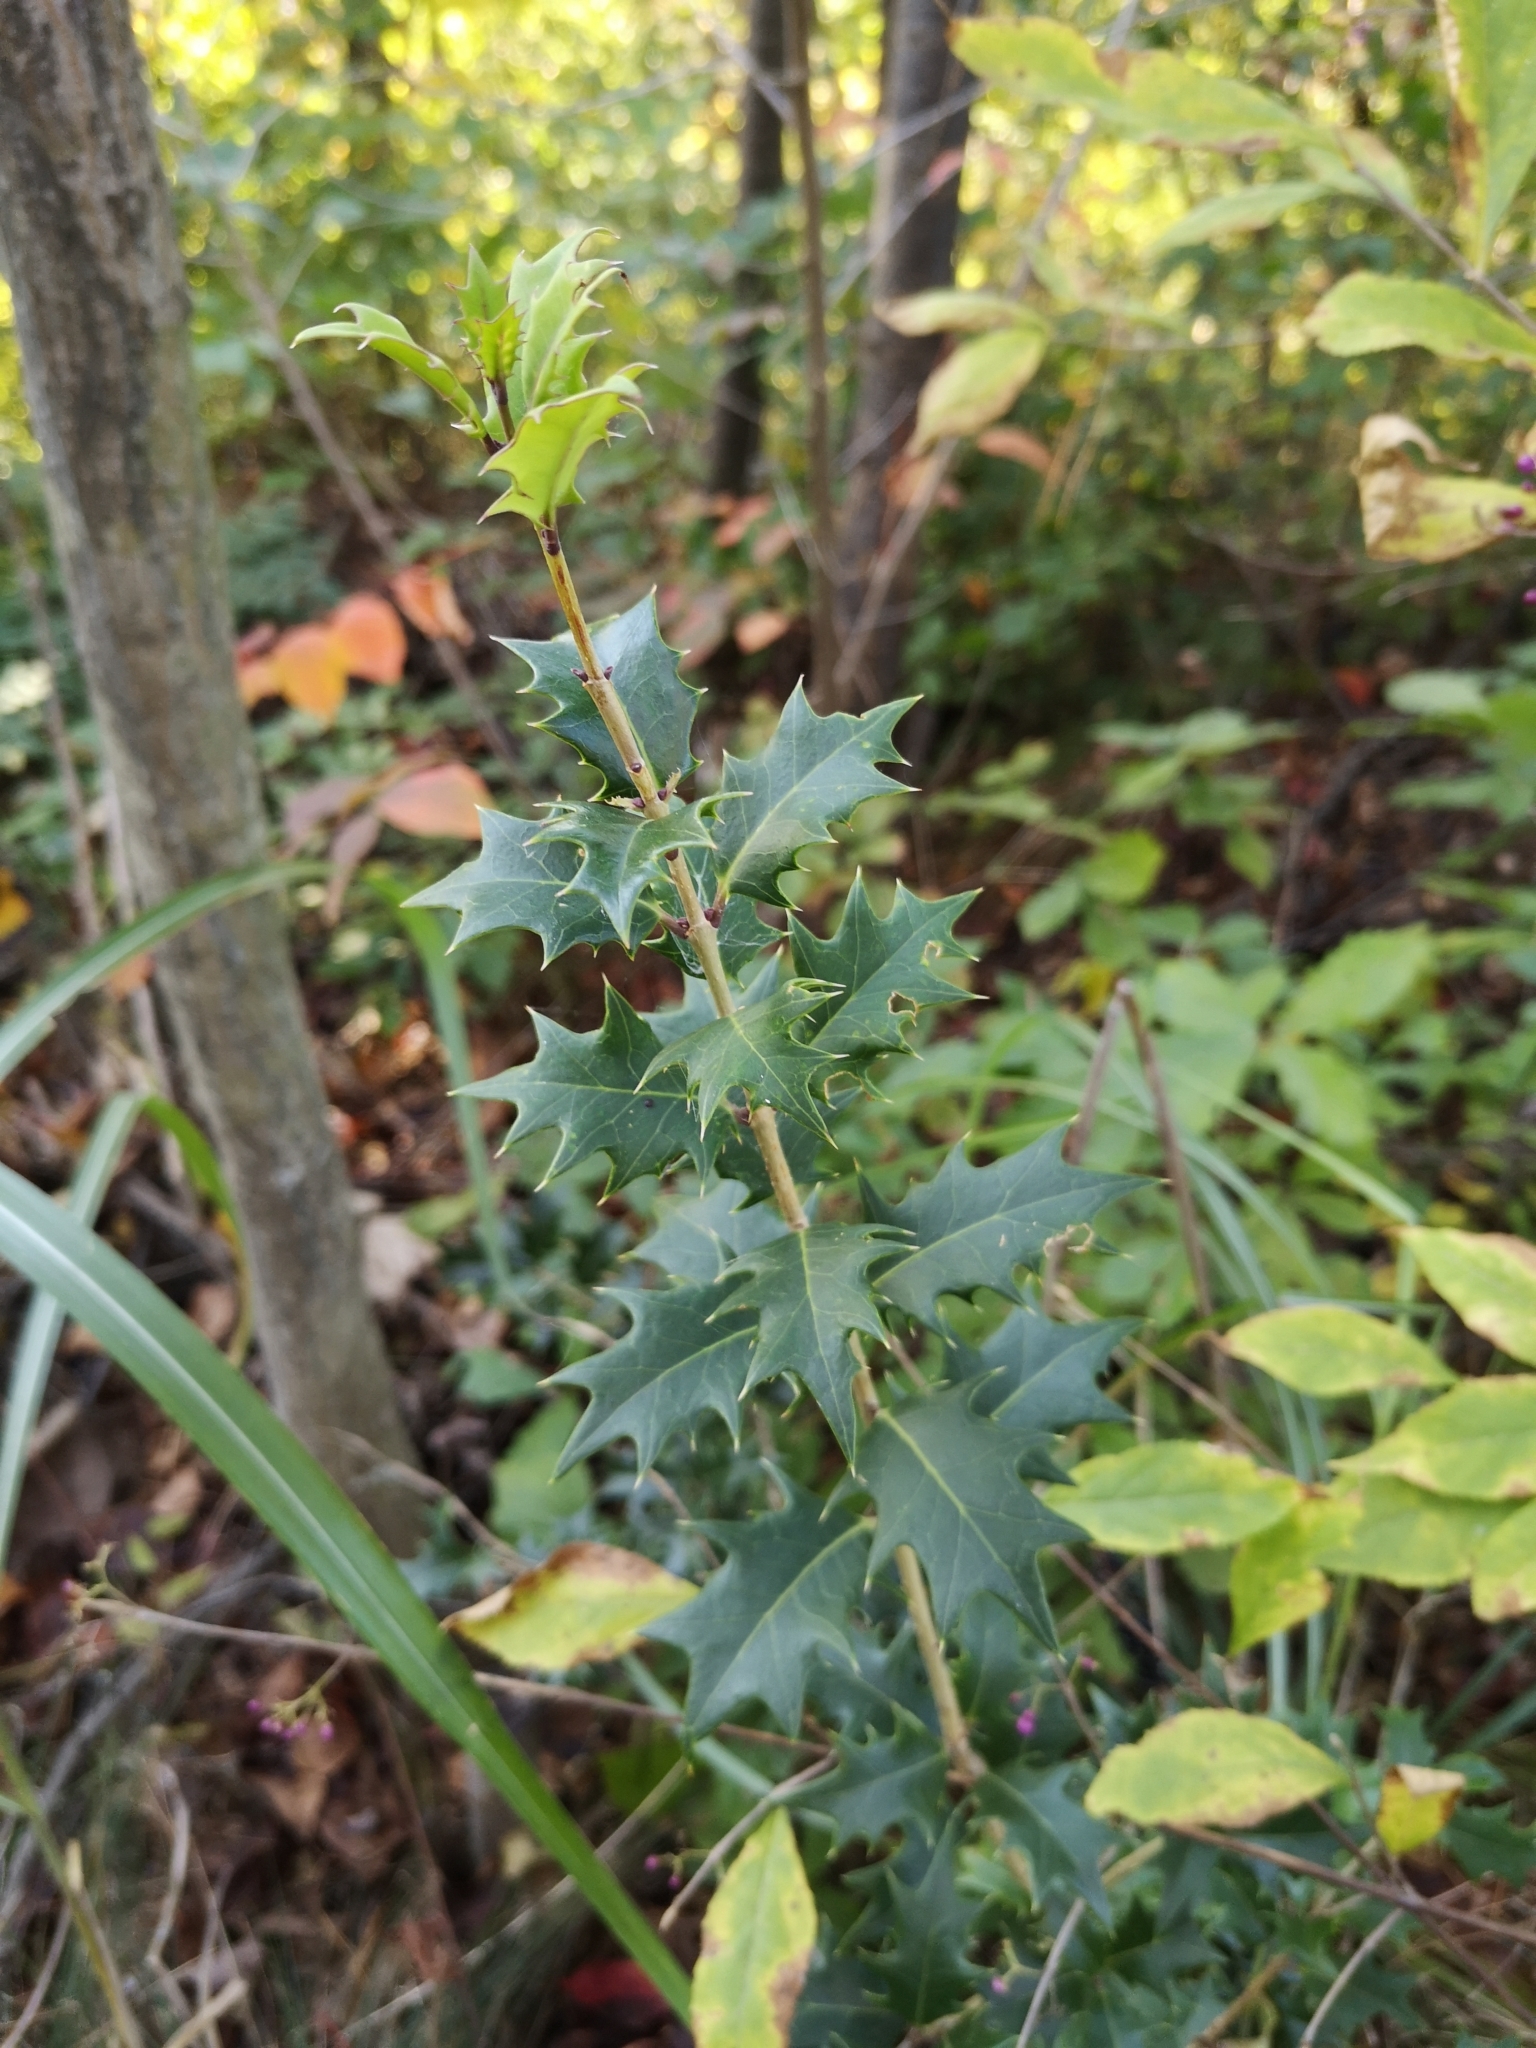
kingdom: Plantae
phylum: Tracheophyta
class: Magnoliopsida
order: Lamiales
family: Oleaceae
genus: Osmanthus
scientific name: Osmanthus heterophyllus
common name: Holly osmanthus
